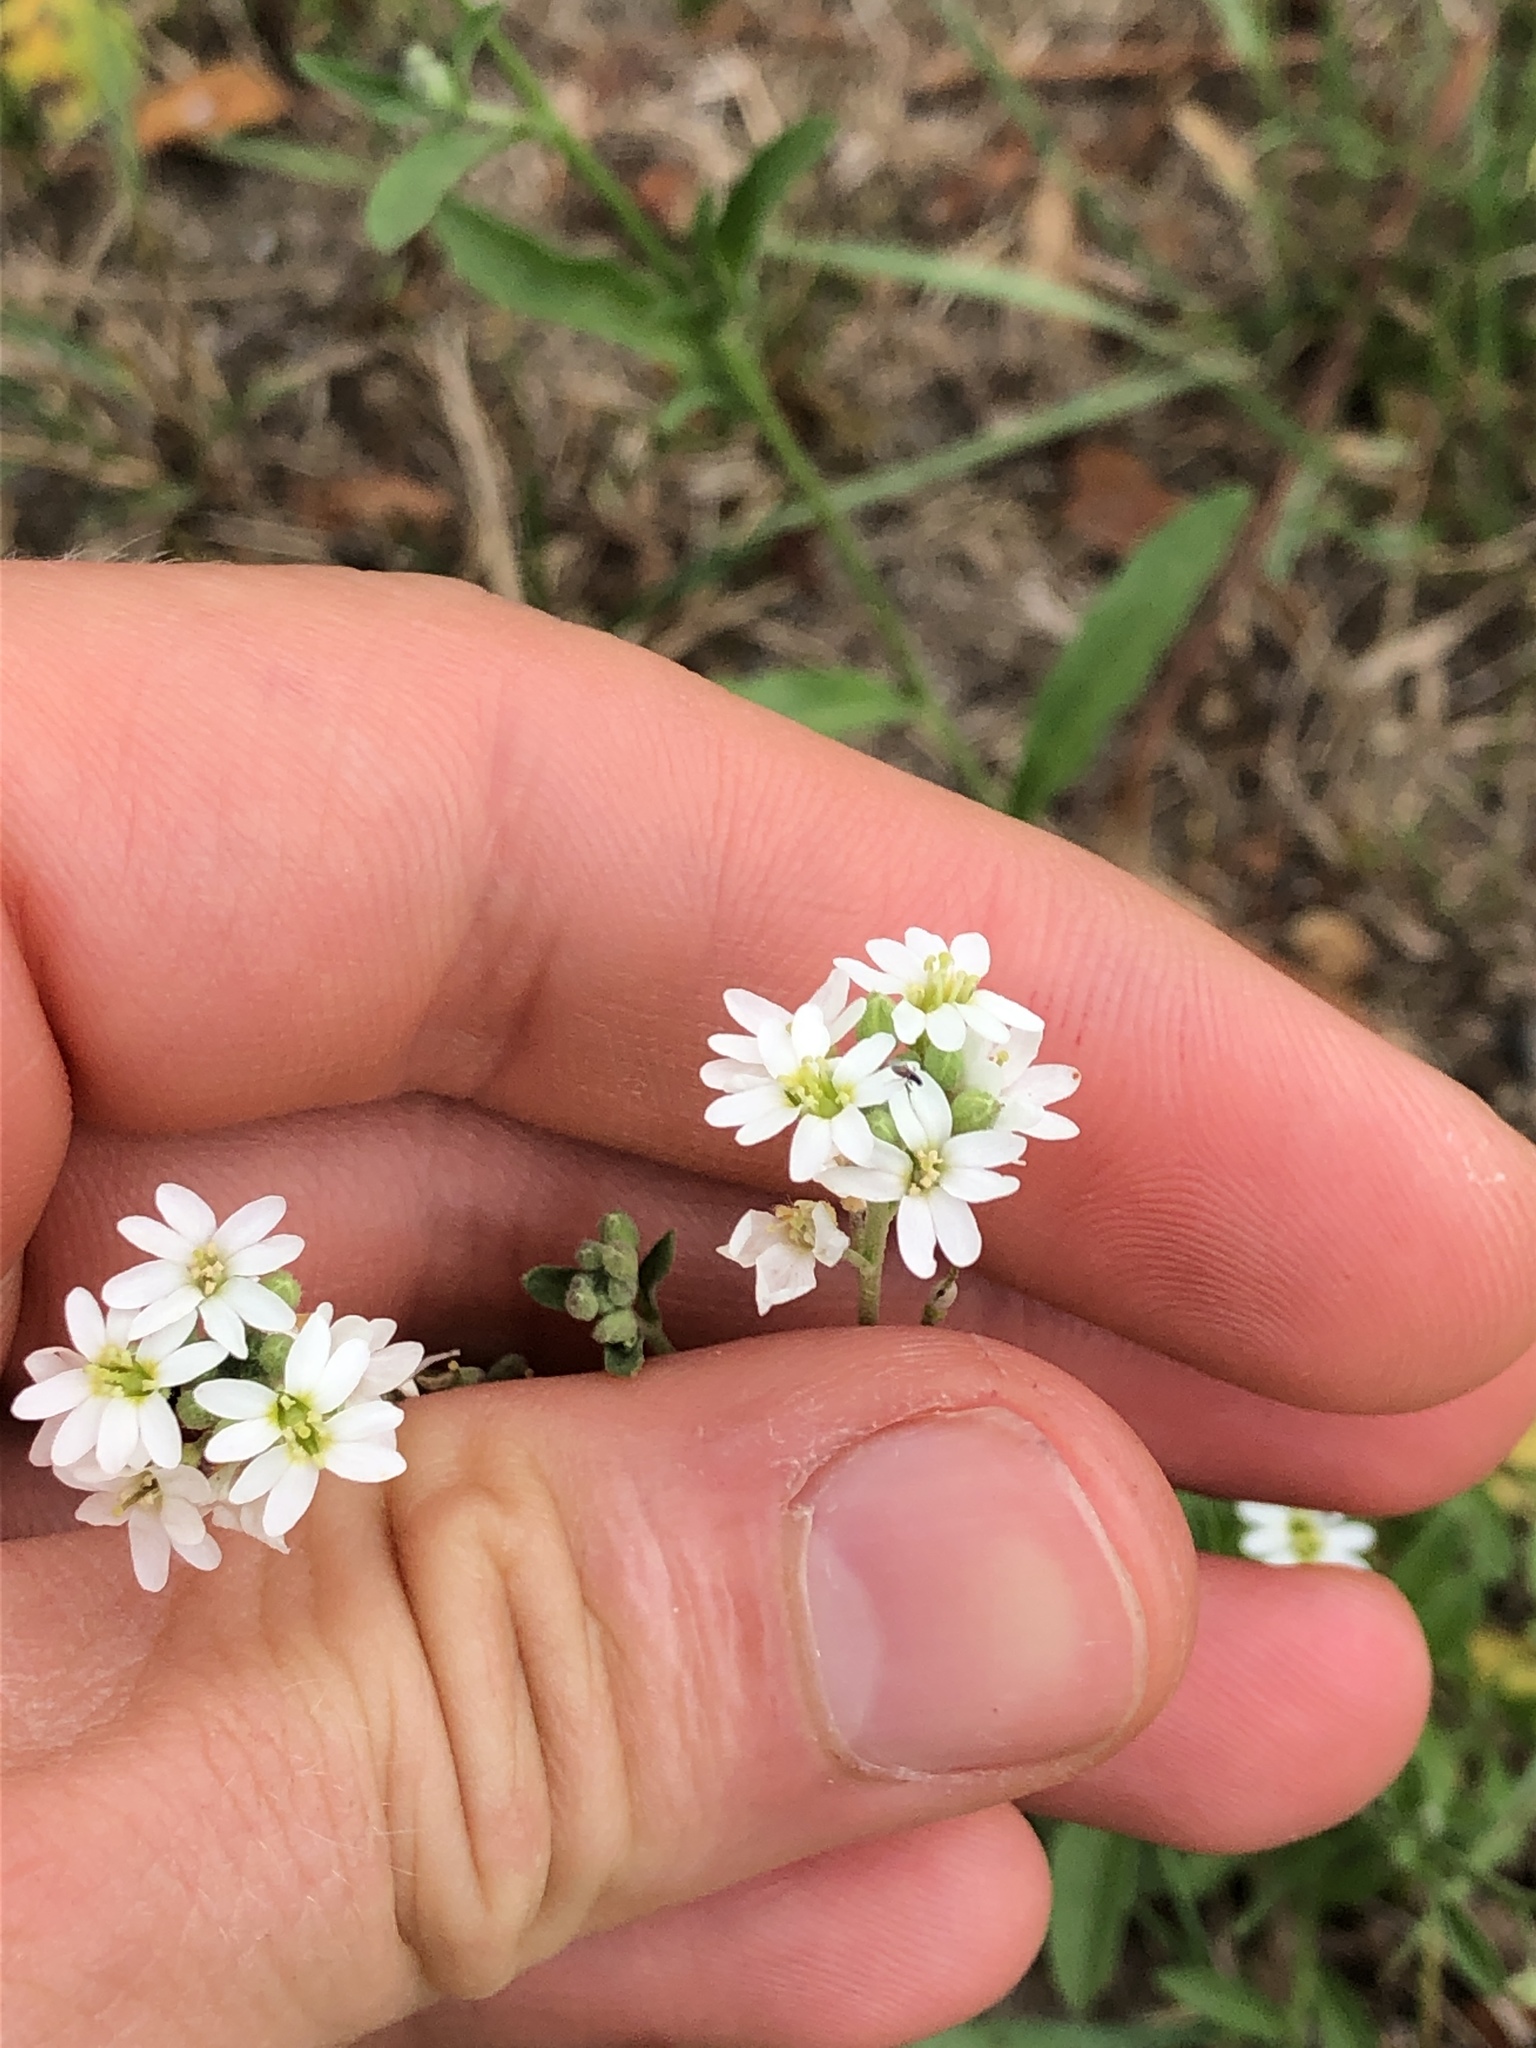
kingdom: Plantae
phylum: Tracheophyta
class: Magnoliopsida
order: Brassicales
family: Brassicaceae
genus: Berteroa
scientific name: Berteroa incana
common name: Hoary alison
